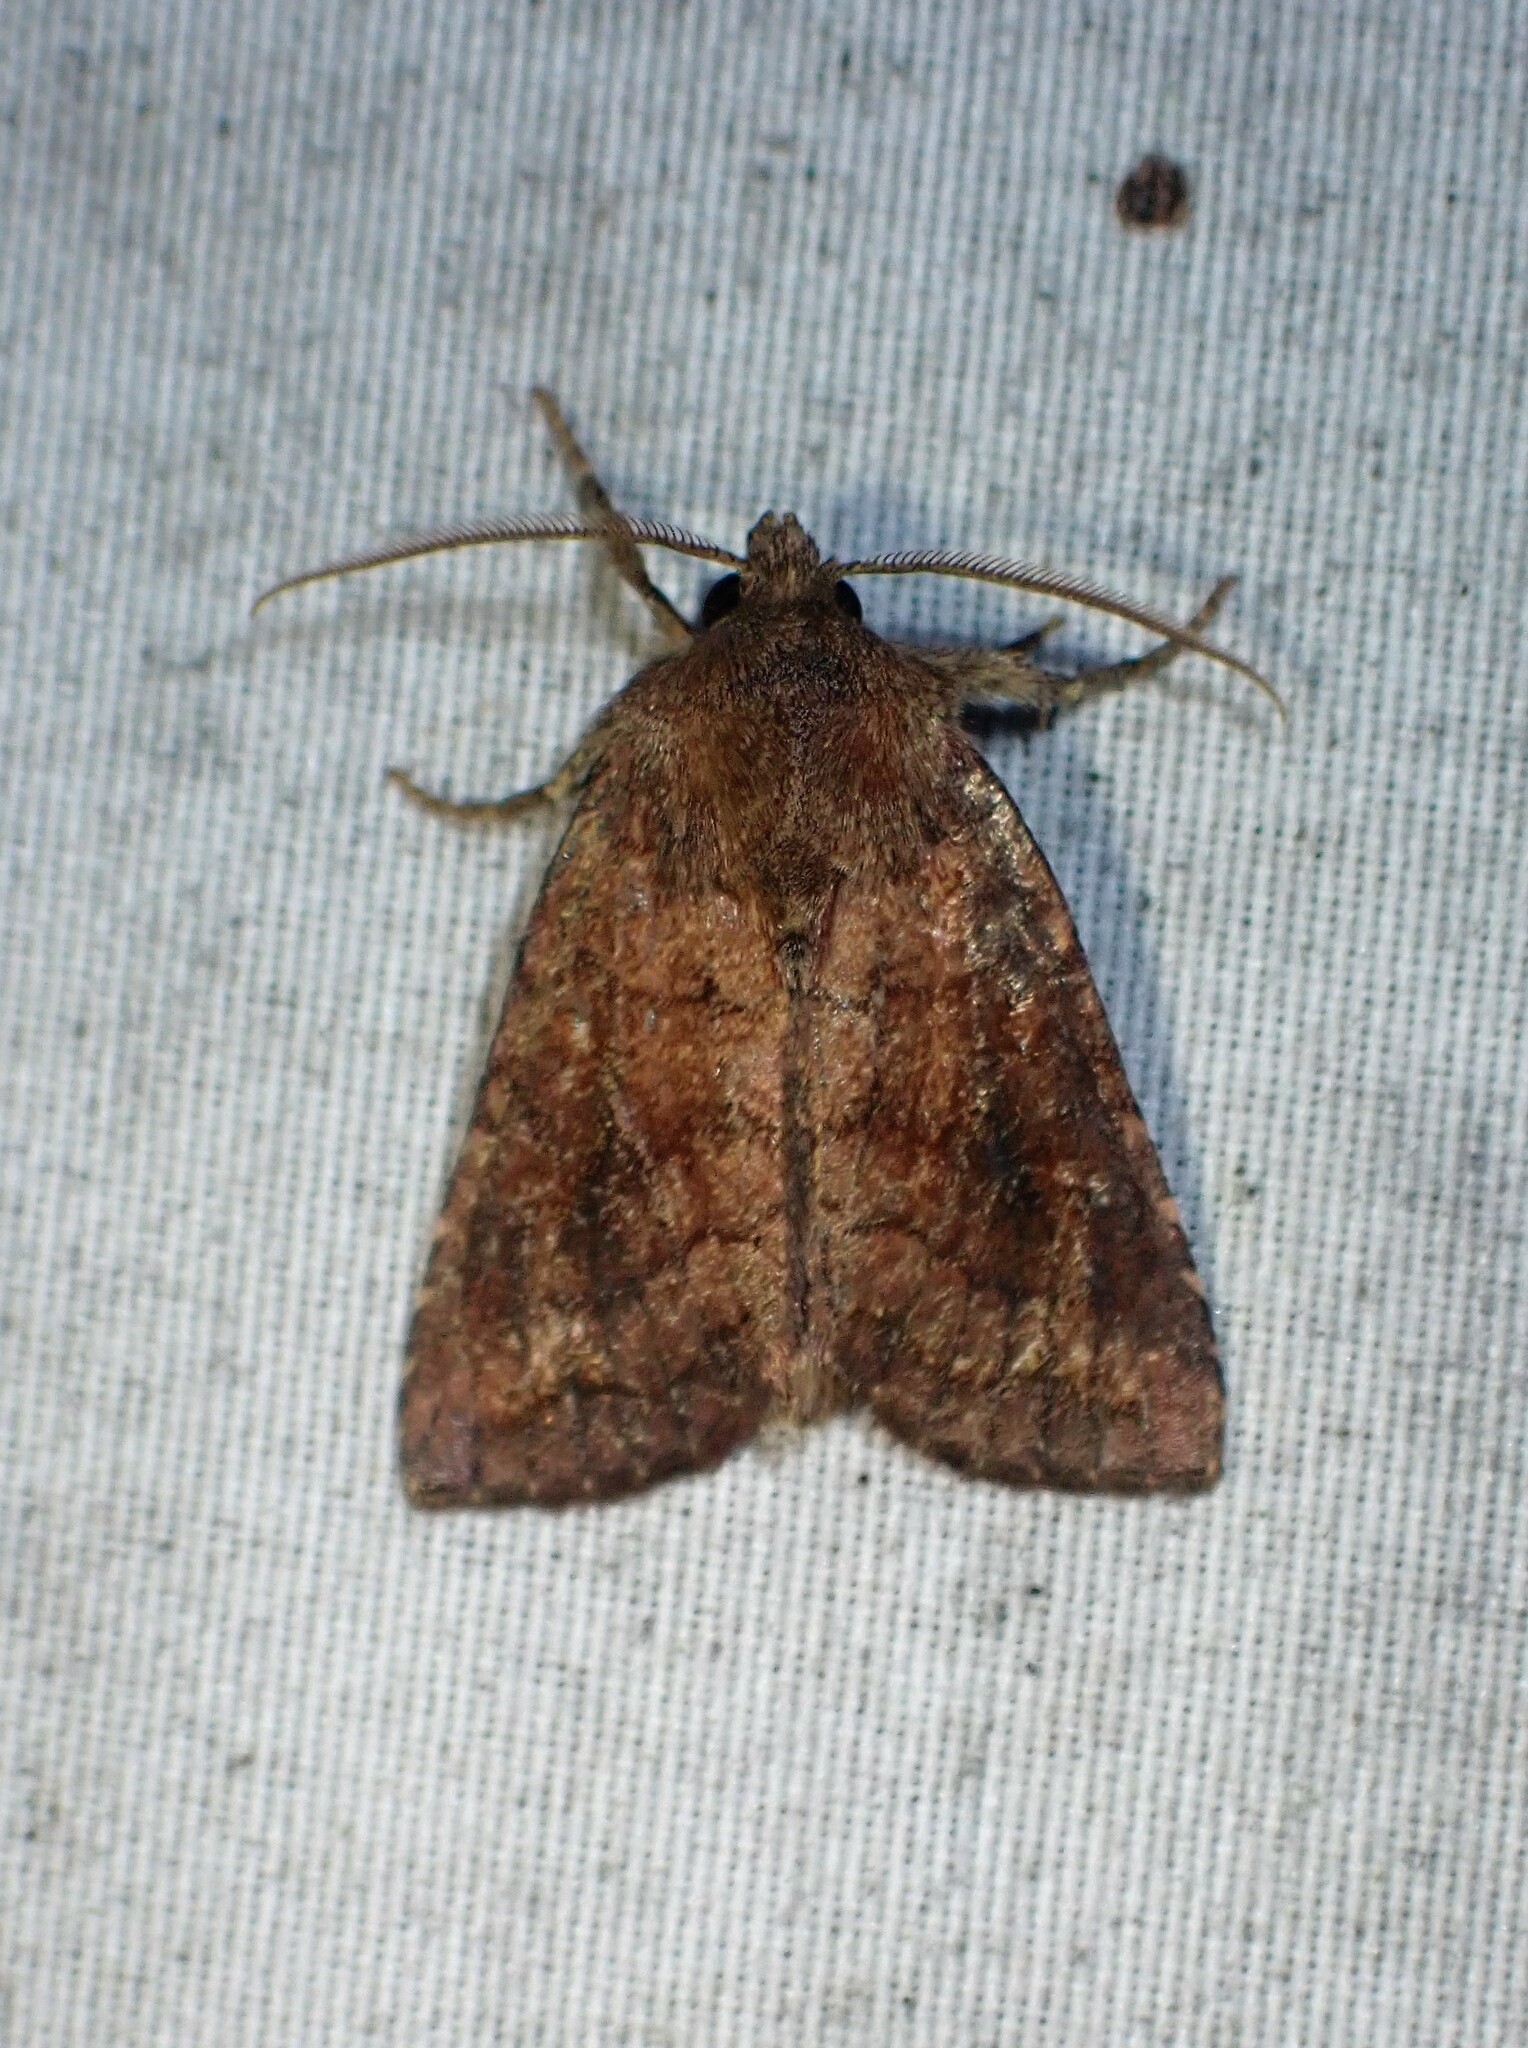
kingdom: Animalia
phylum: Arthropoda
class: Insecta
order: Lepidoptera
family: Noctuidae
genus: Tricholita
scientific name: Tricholita signata
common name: Signate quaker
